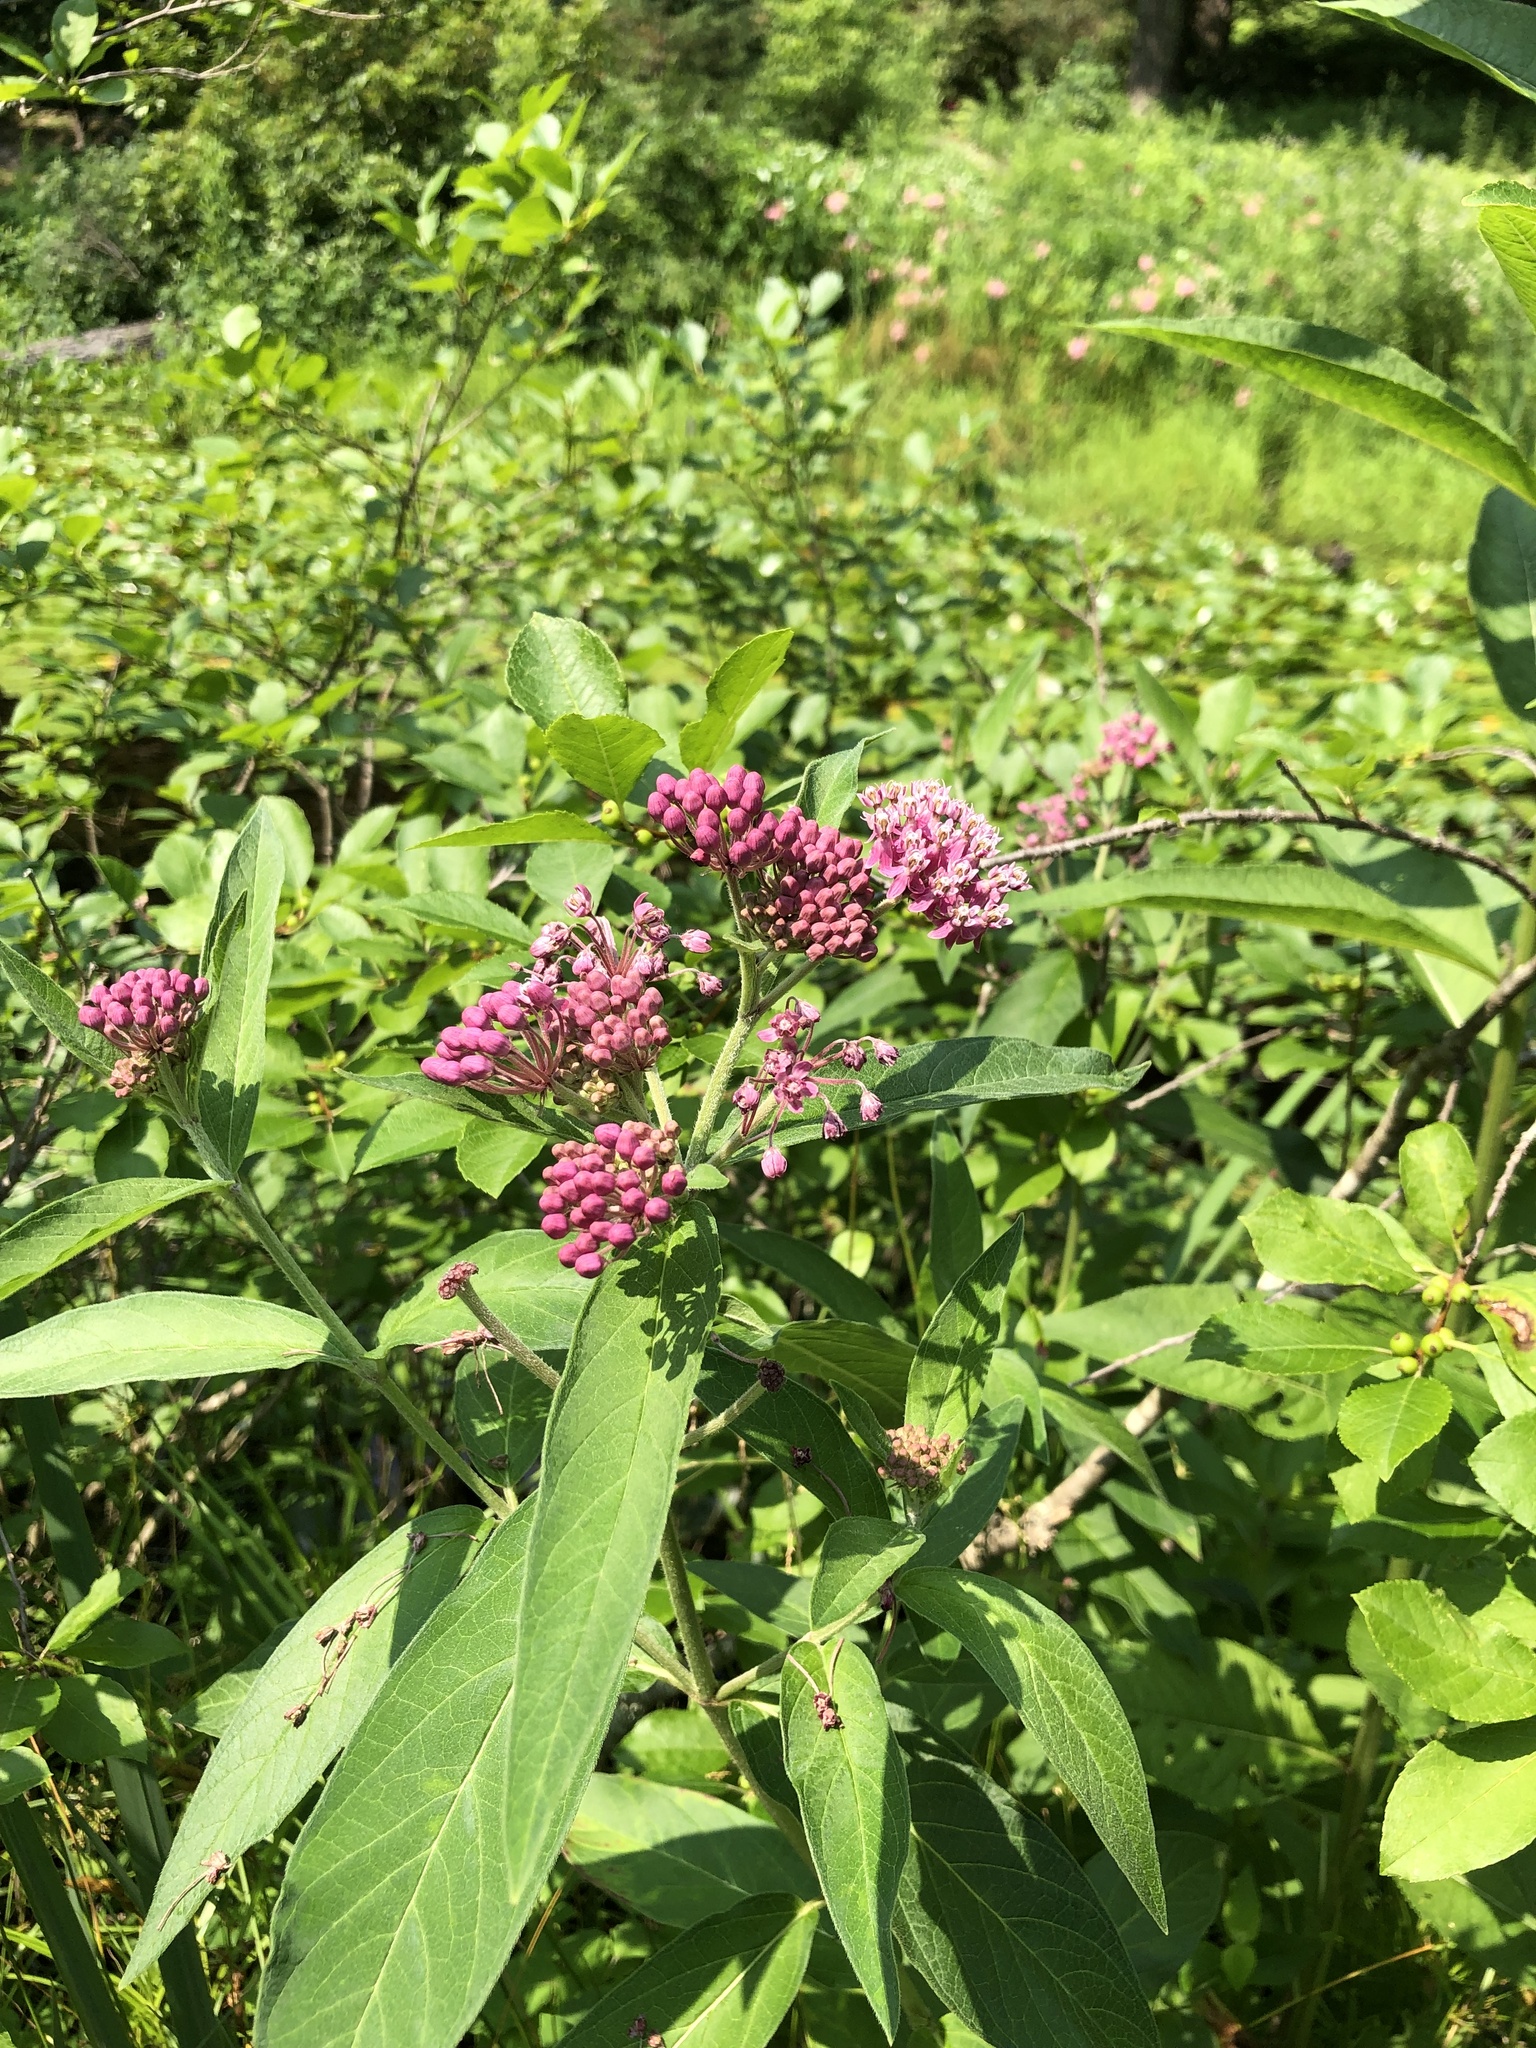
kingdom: Plantae
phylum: Tracheophyta
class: Magnoliopsida
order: Gentianales
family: Apocynaceae
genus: Asclepias
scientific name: Asclepias incarnata
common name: Swamp milkweed
